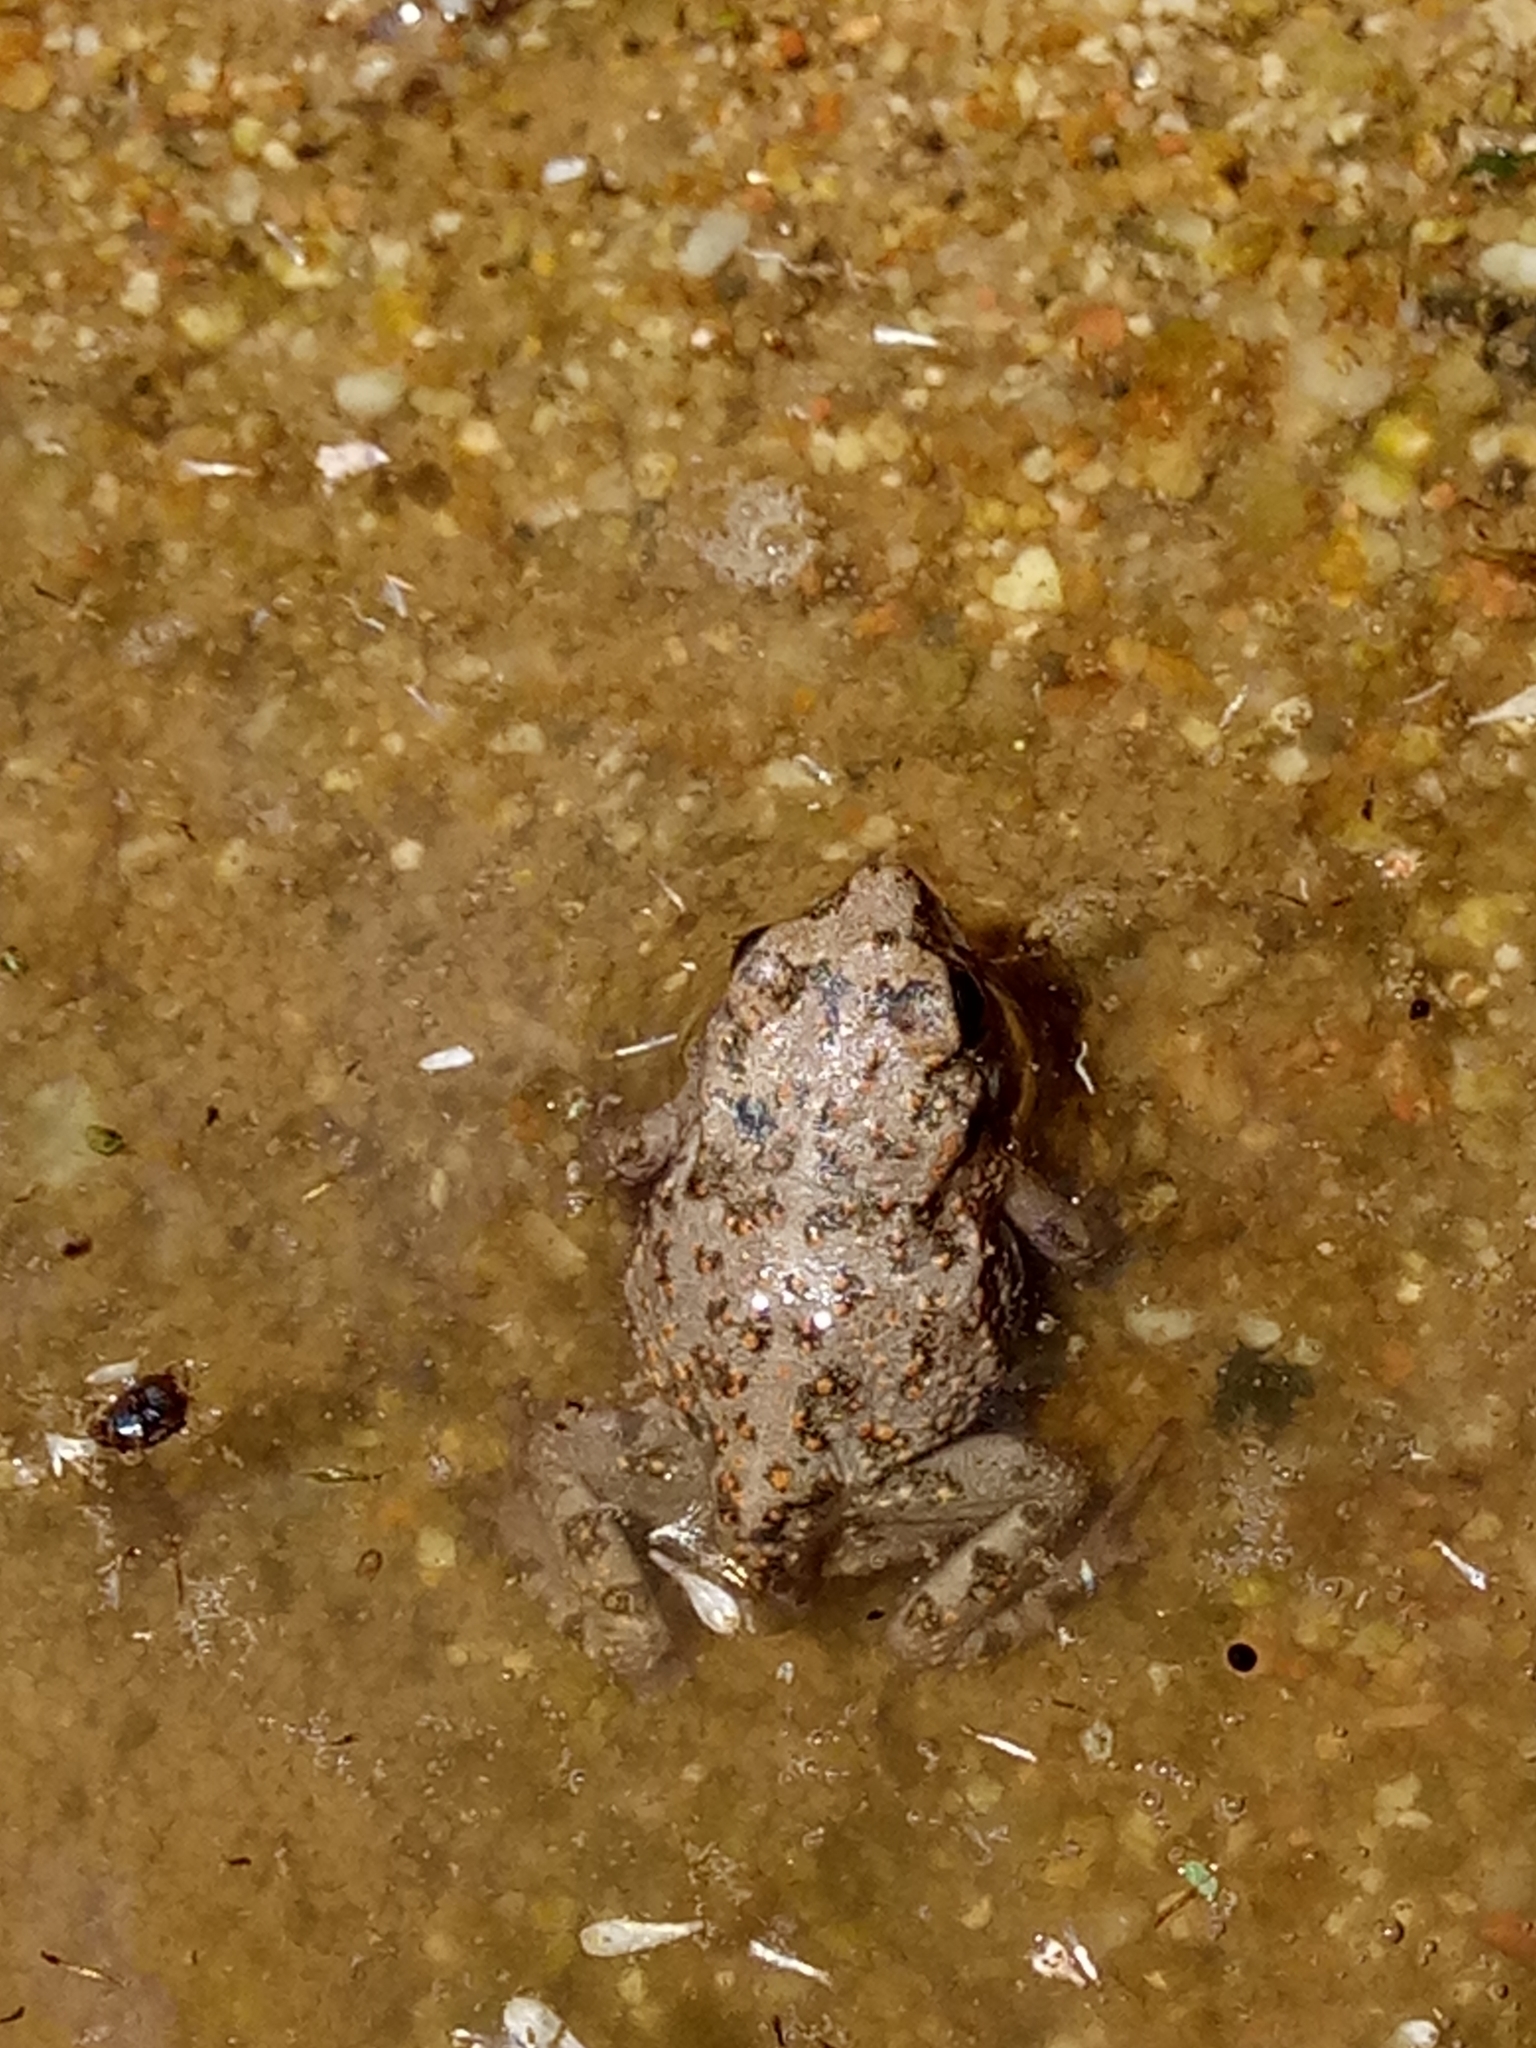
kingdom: Animalia
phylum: Chordata
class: Amphibia
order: Anura
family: Bufonidae
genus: Bufotes
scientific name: Bufotes boulengeri
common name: African green toad
